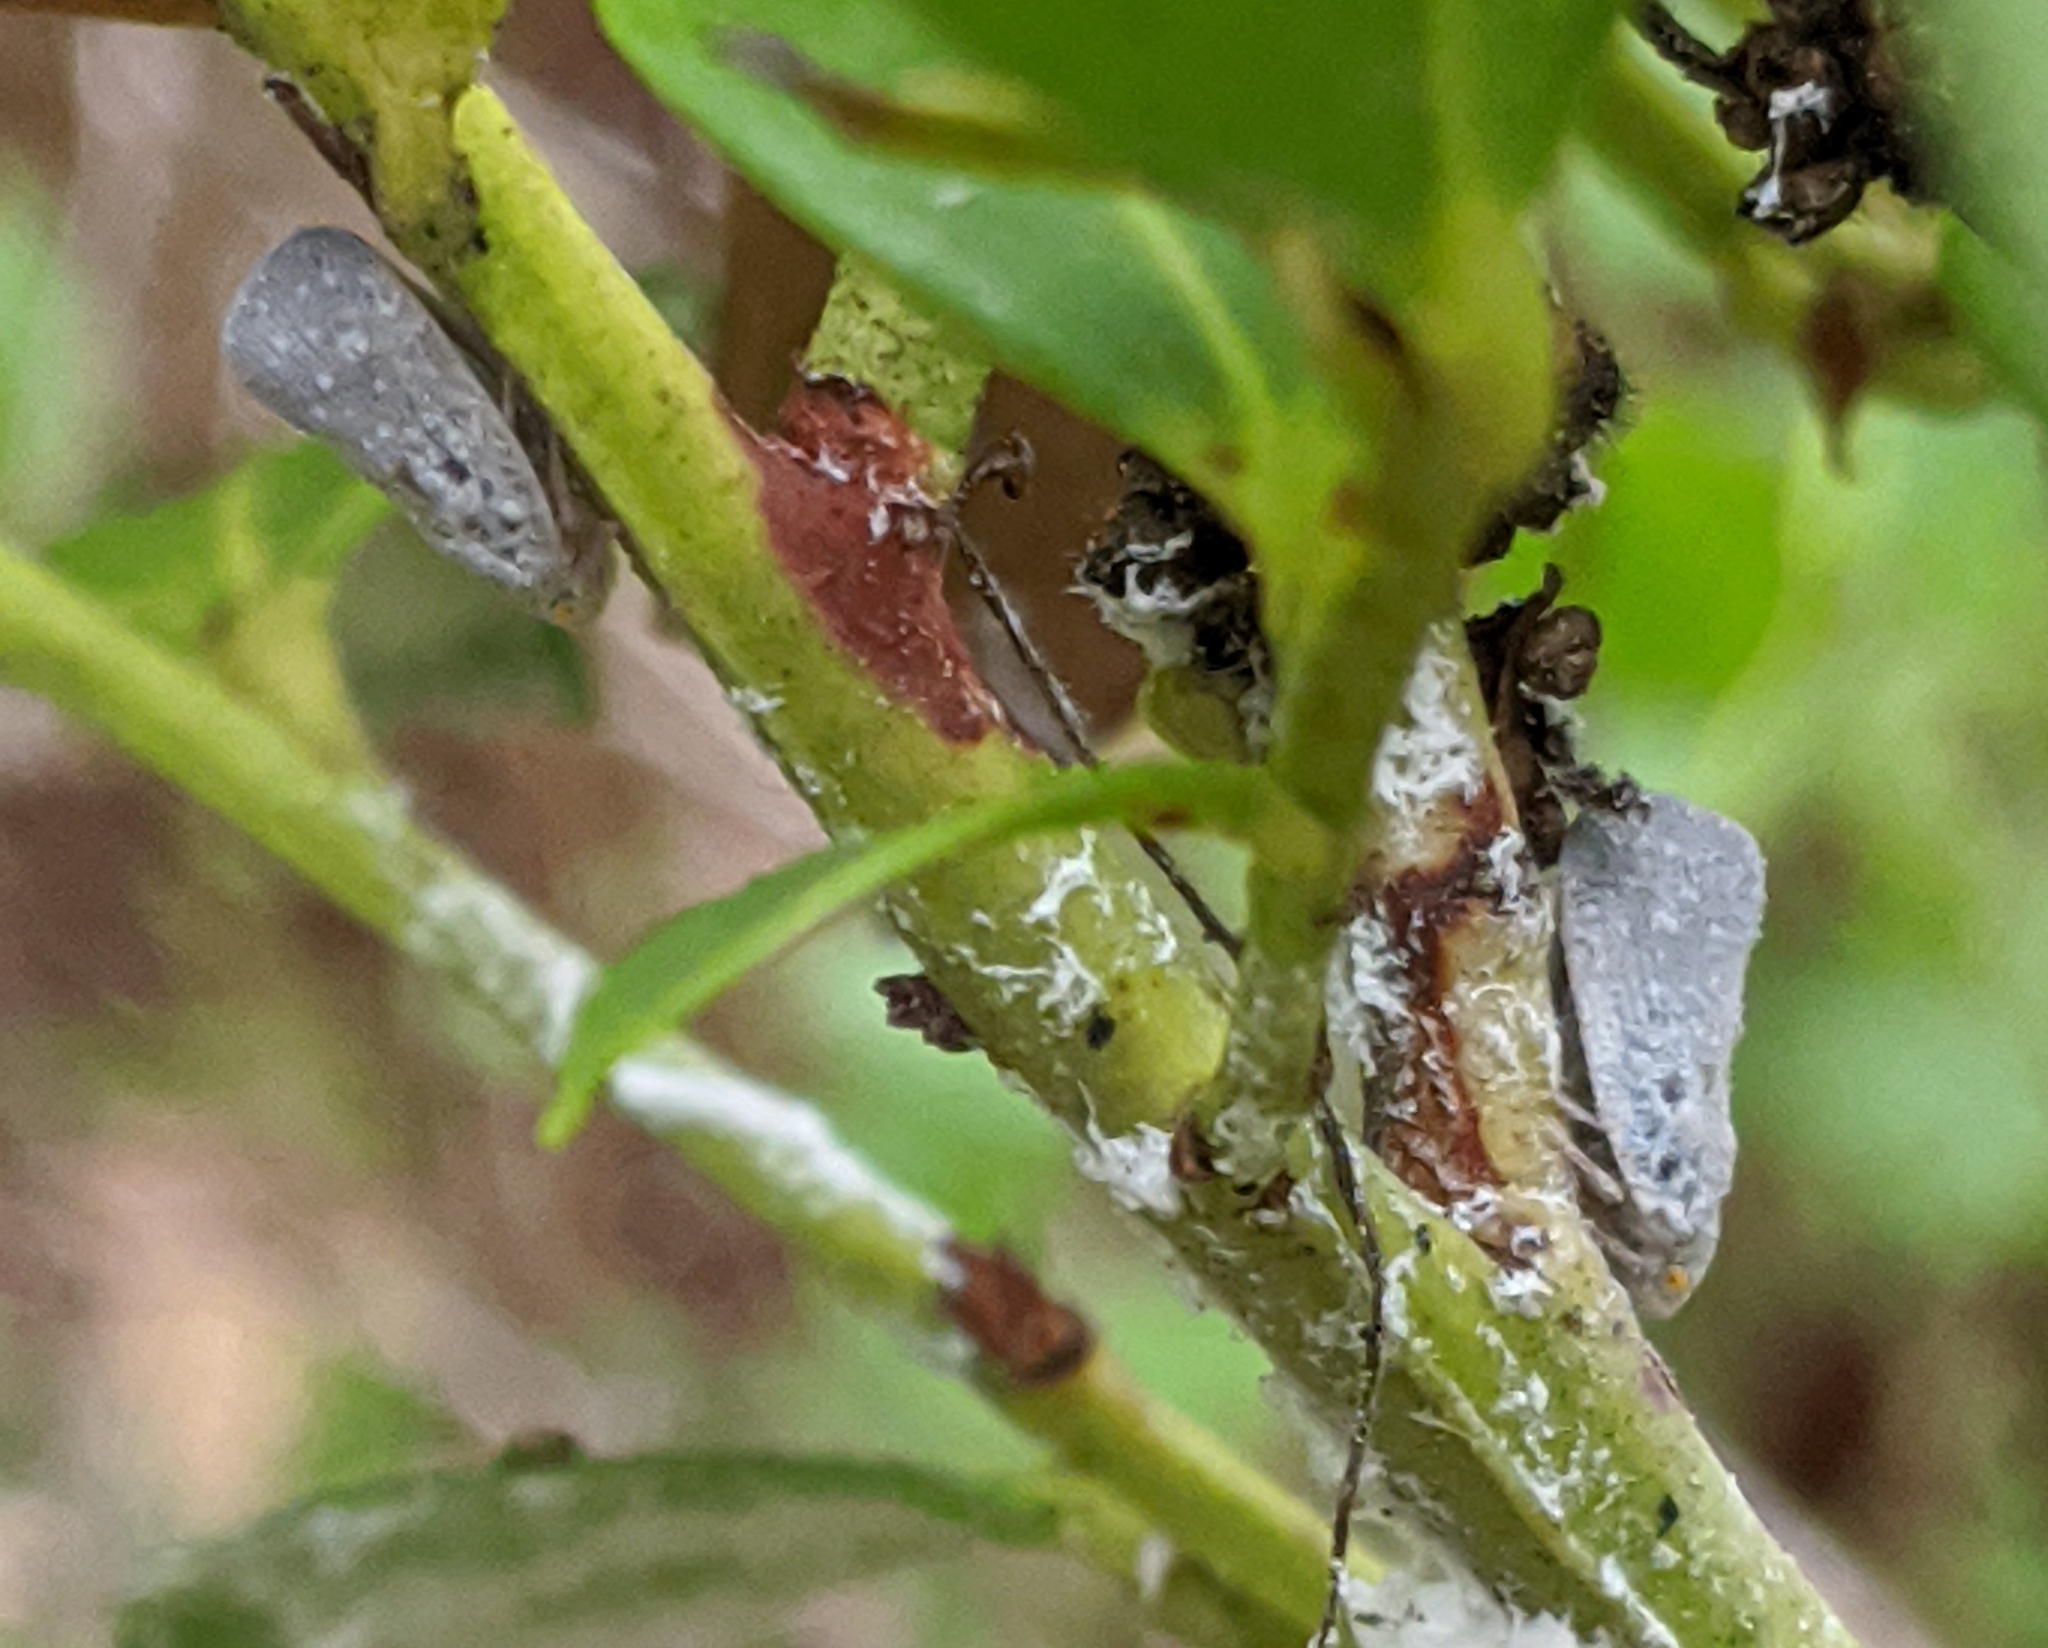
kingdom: Animalia
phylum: Arthropoda
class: Insecta
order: Hemiptera
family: Flatidae
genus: Metcalfa
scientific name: Metcalfa pruinosa
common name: Citrus flatid planthopper
